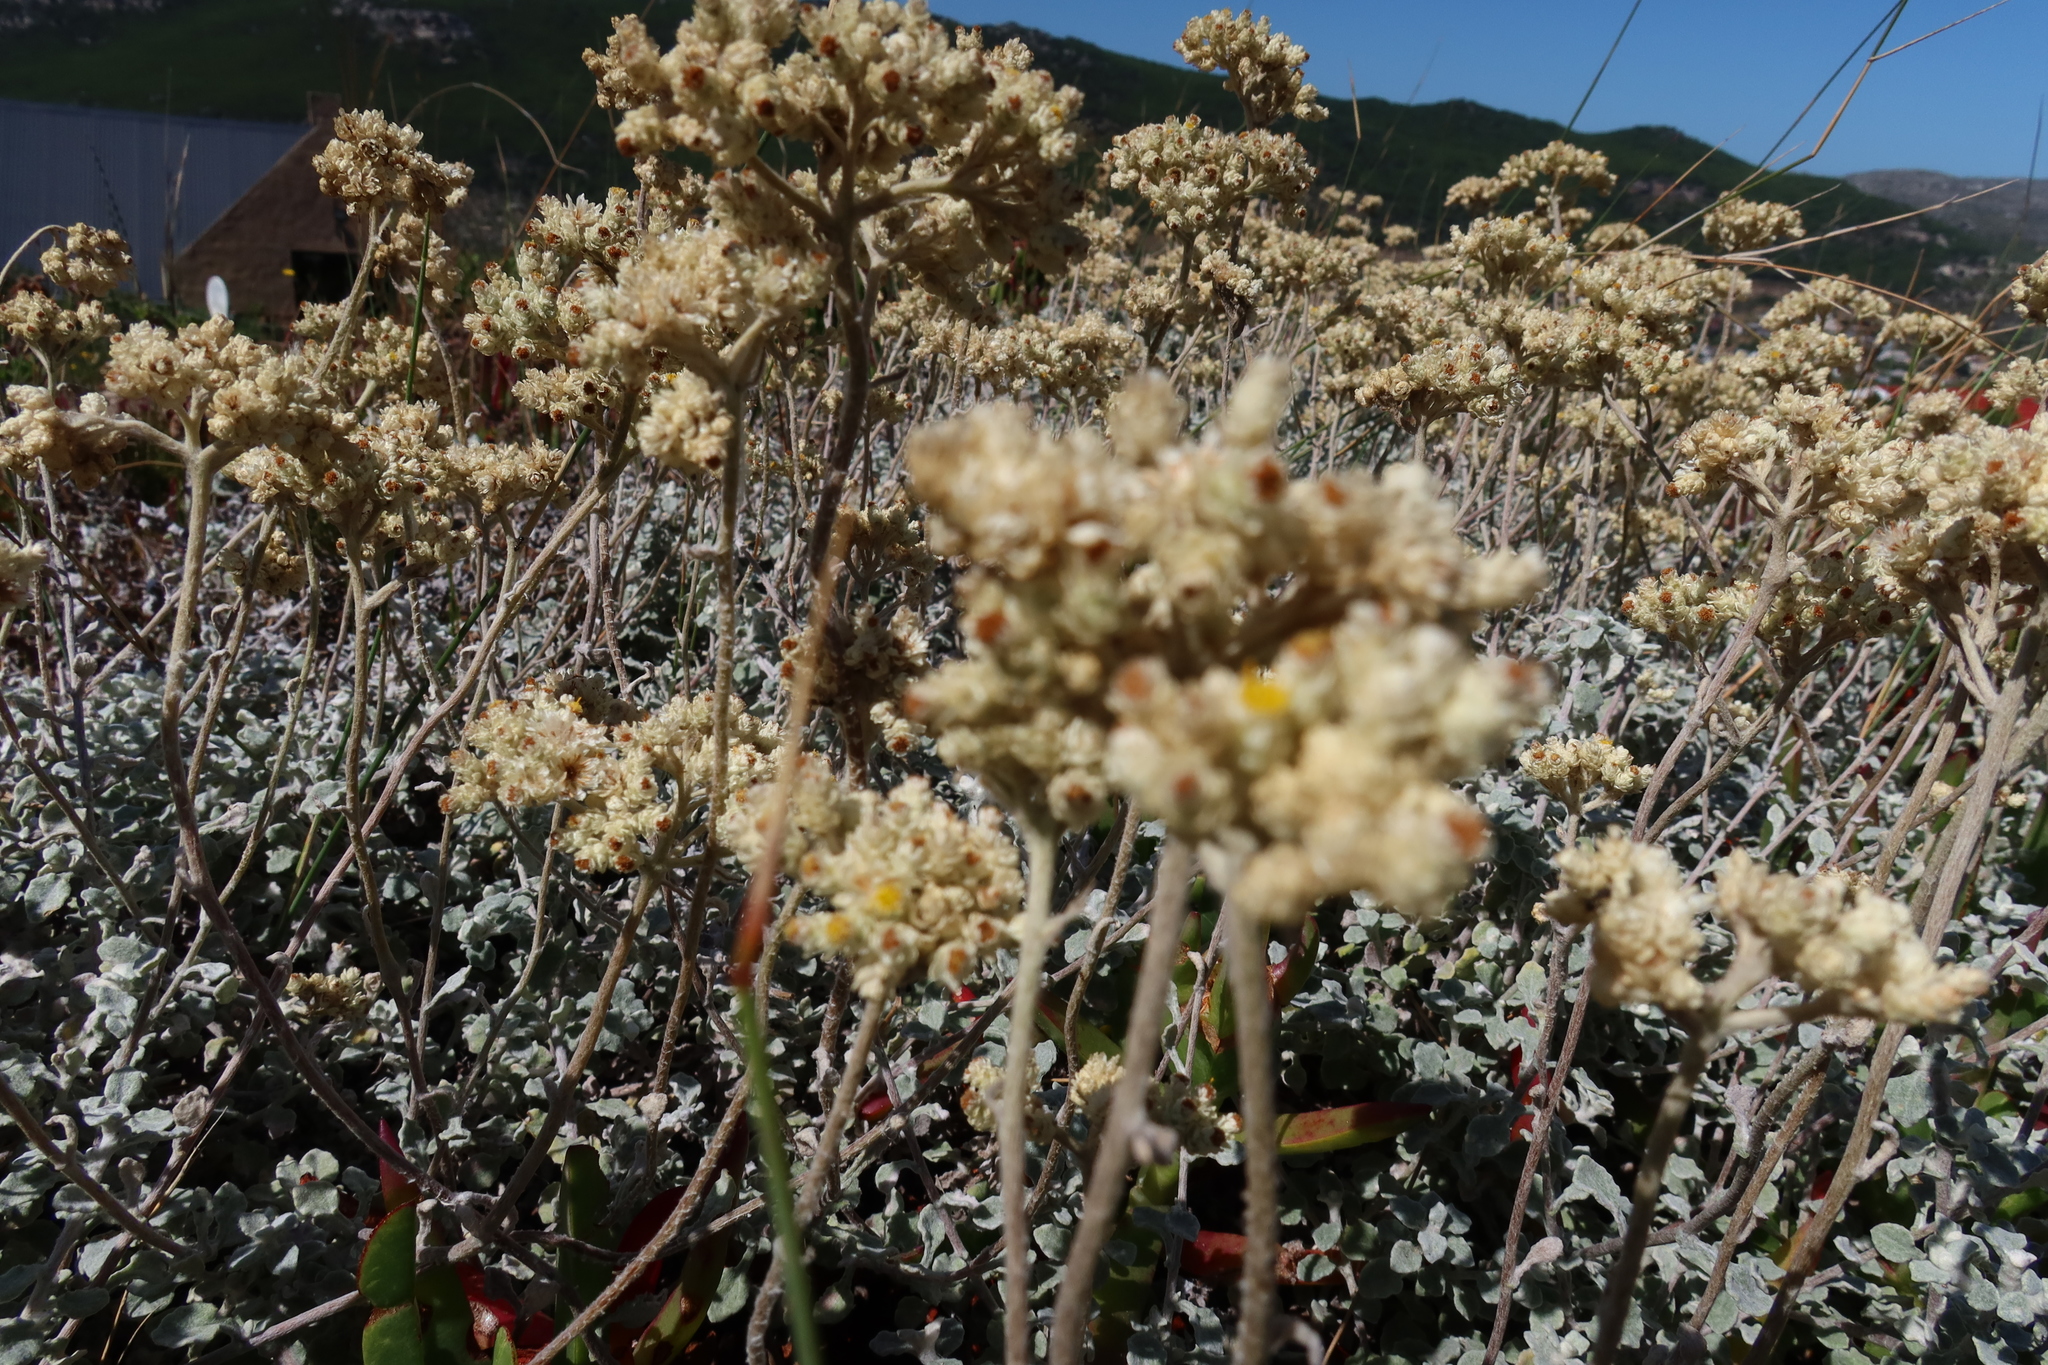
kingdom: Plantae
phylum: Tracheophyta
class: Magnoliopsida
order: Asterales
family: Asteraceae
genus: Helichrysum
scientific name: Helichrysum patulum
